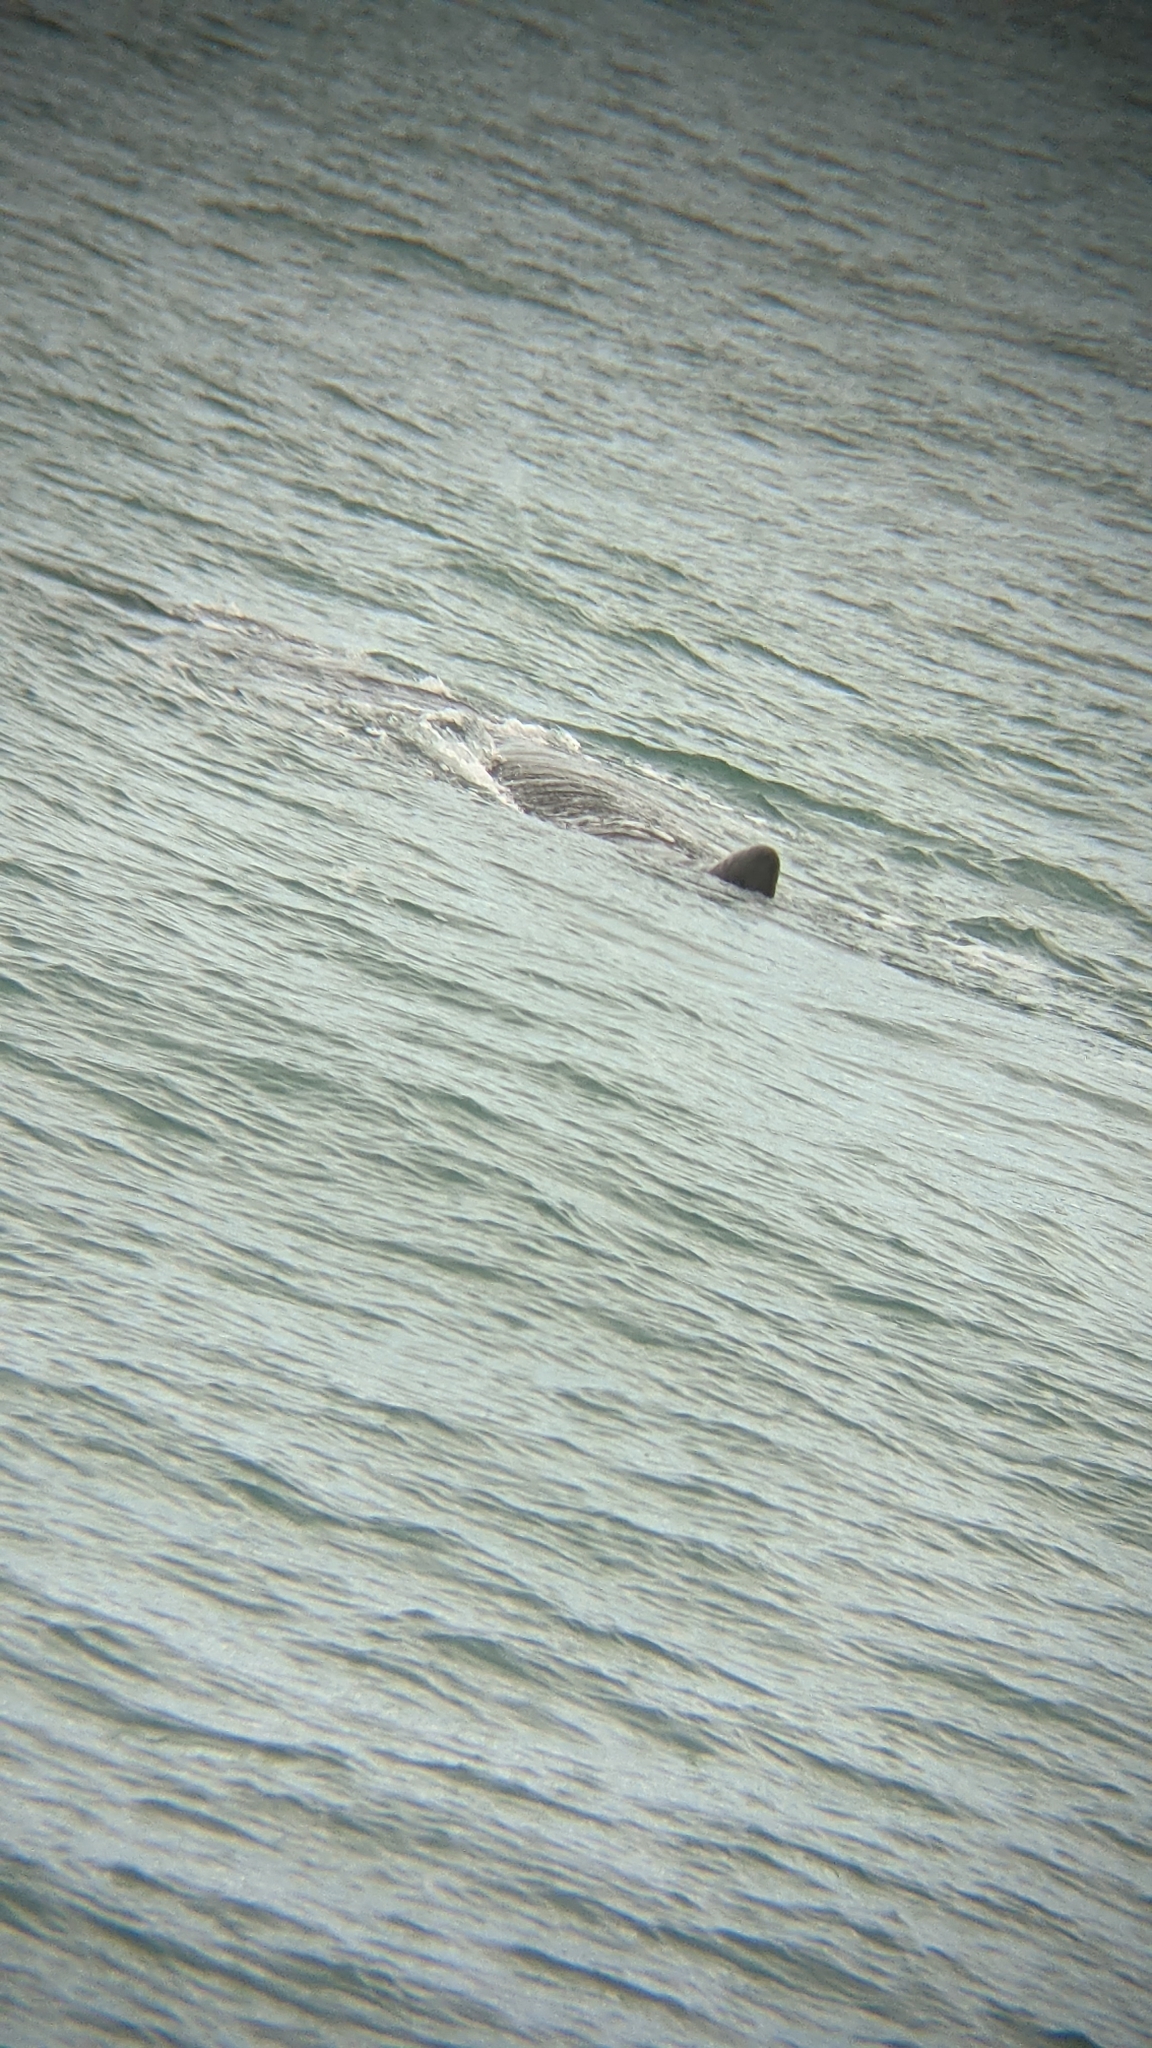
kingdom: Animalia
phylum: Chordata
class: Mammalia
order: Cetacea
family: Physeteridae
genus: Physeter
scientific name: Physeter macrocephalus
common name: Sperm whale
